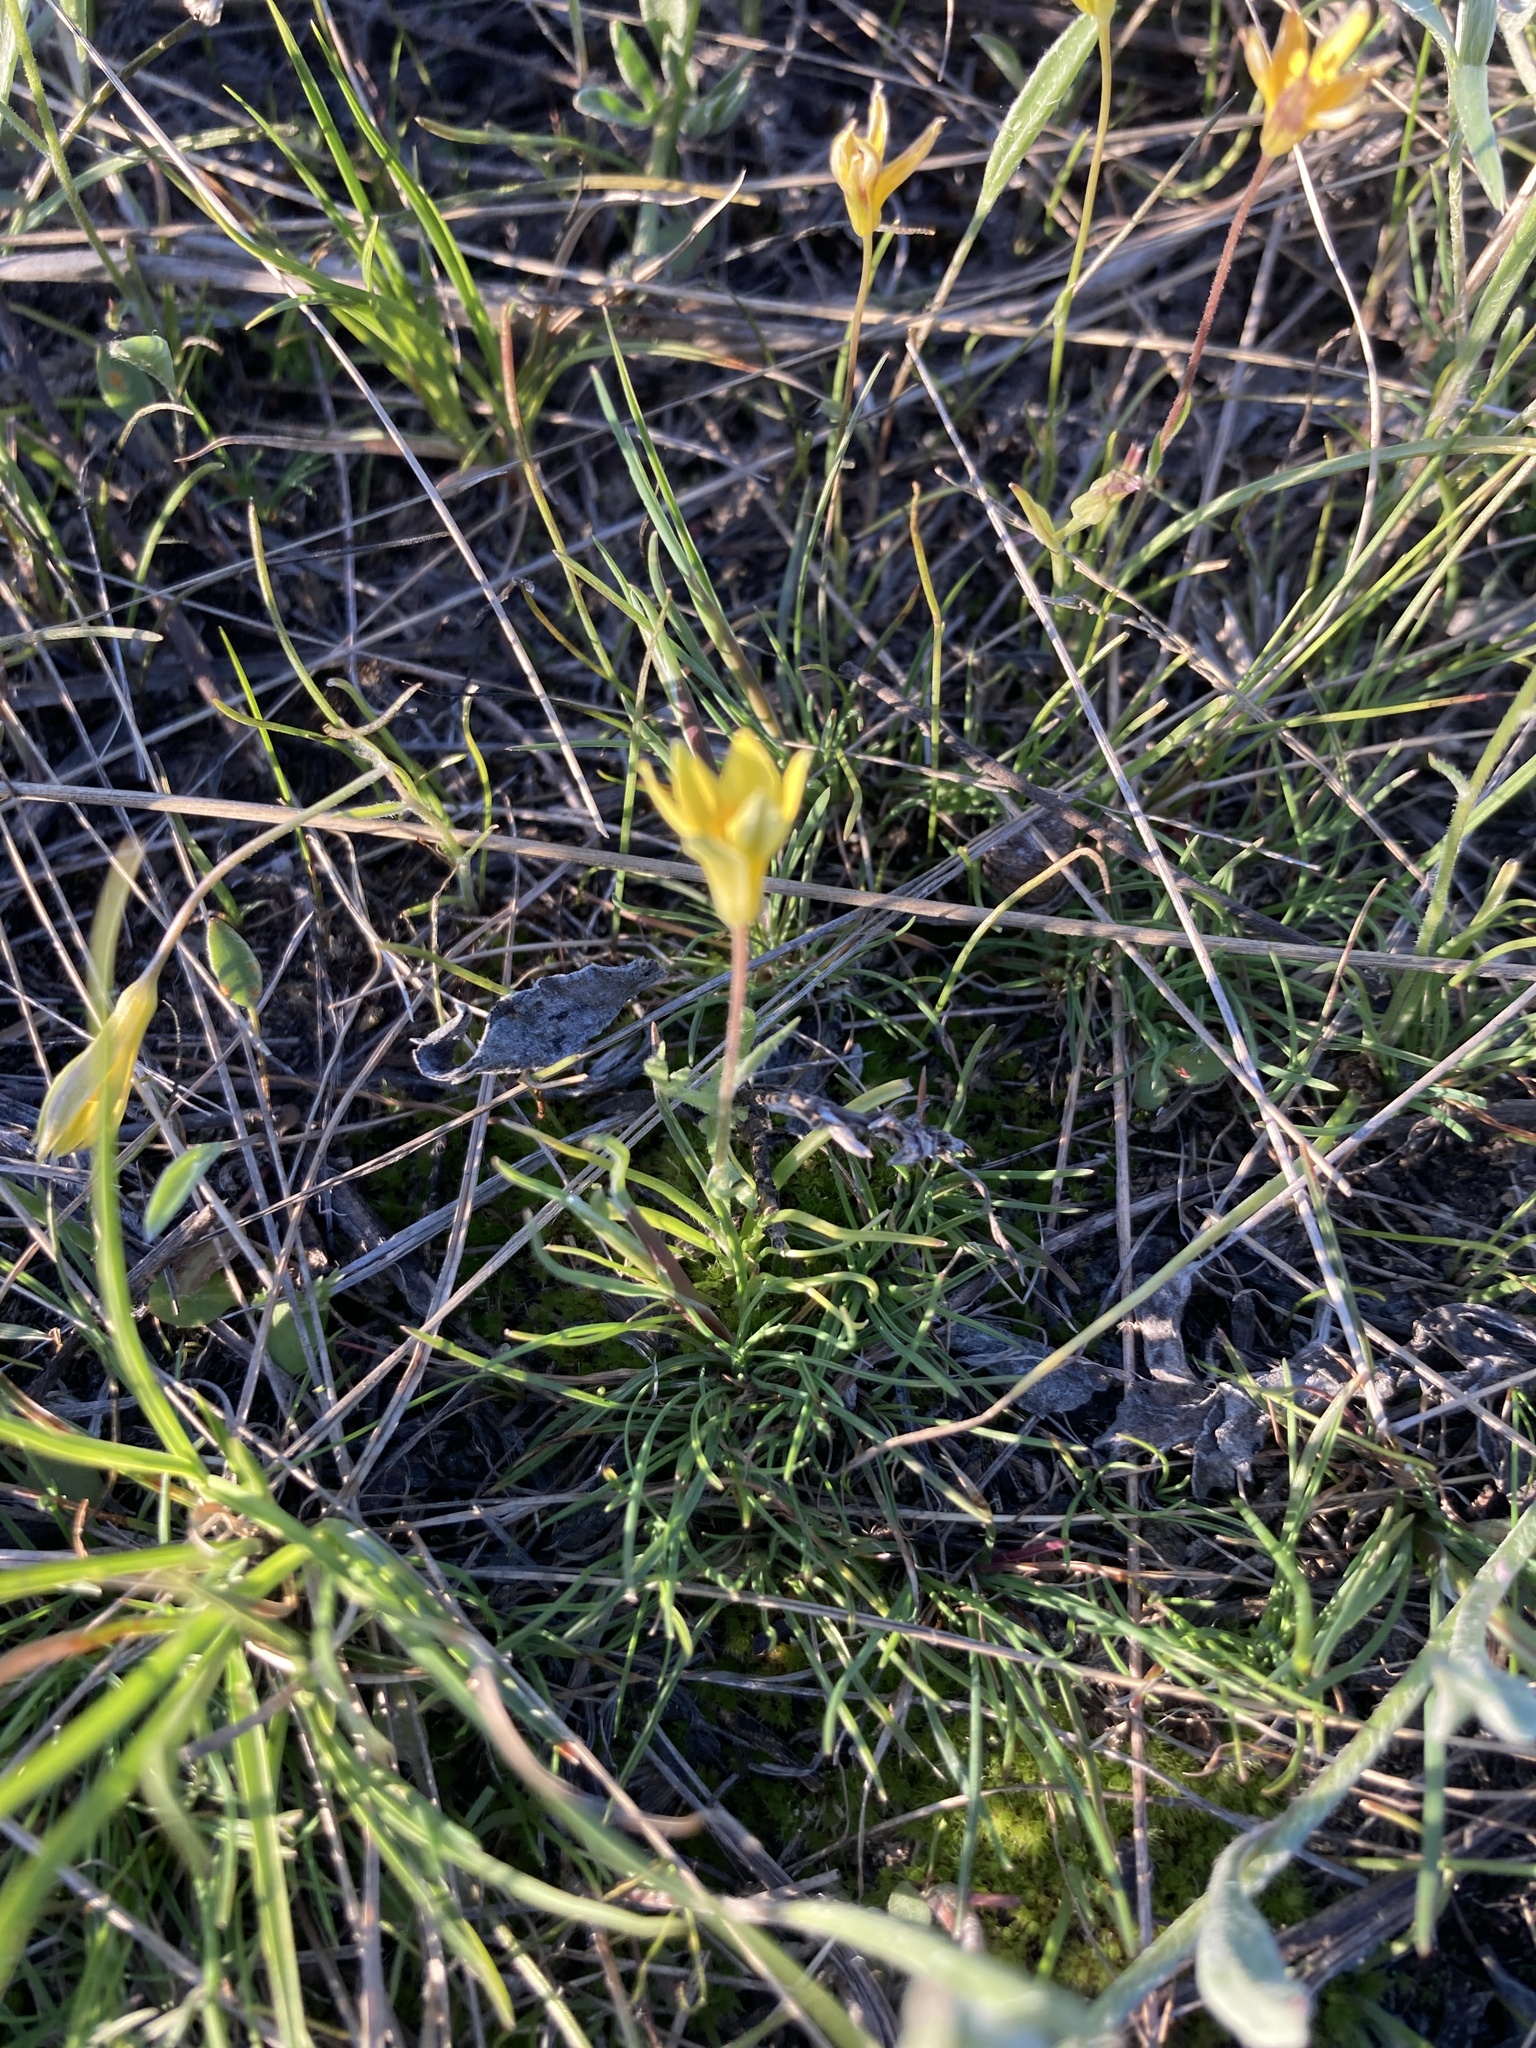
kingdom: Plantae
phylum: Tracheophyta
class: Liliopsida
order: Liliales
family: Liliaceae
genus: Gagea
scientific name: Gagea bulbifera
